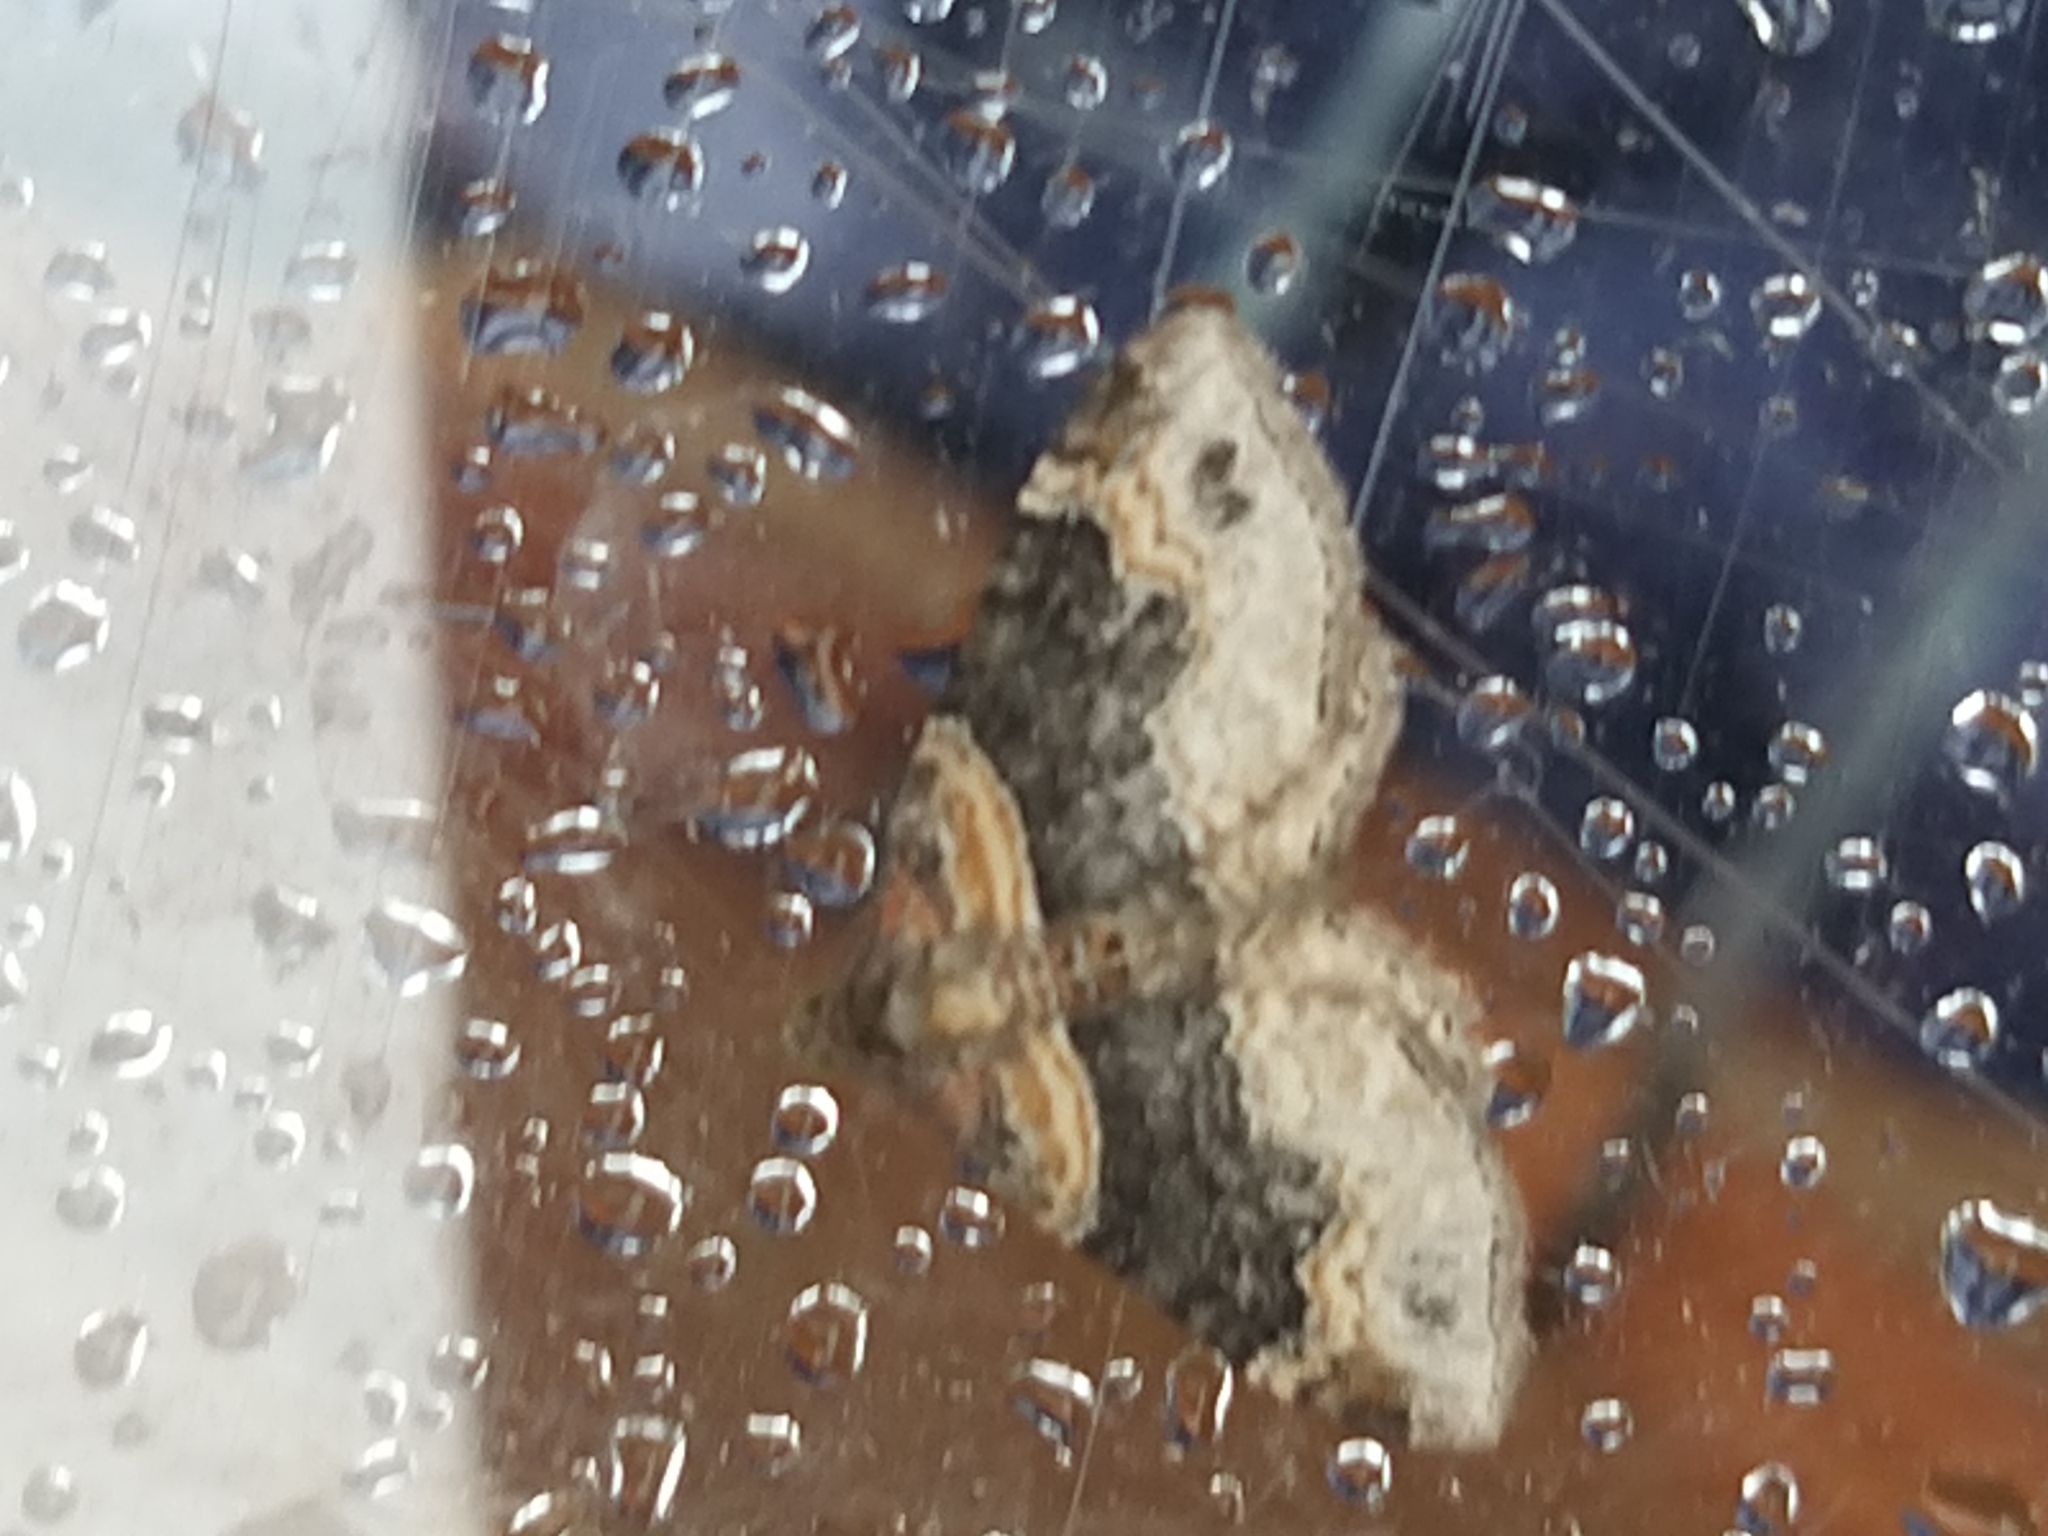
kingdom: Animalia
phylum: Arthropoda
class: Insecta
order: Lepidoptera
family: Geometridae
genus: Xanthorhoe
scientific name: Xanthorhoe ferrugata
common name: Dark-barred twin-spot carpet
